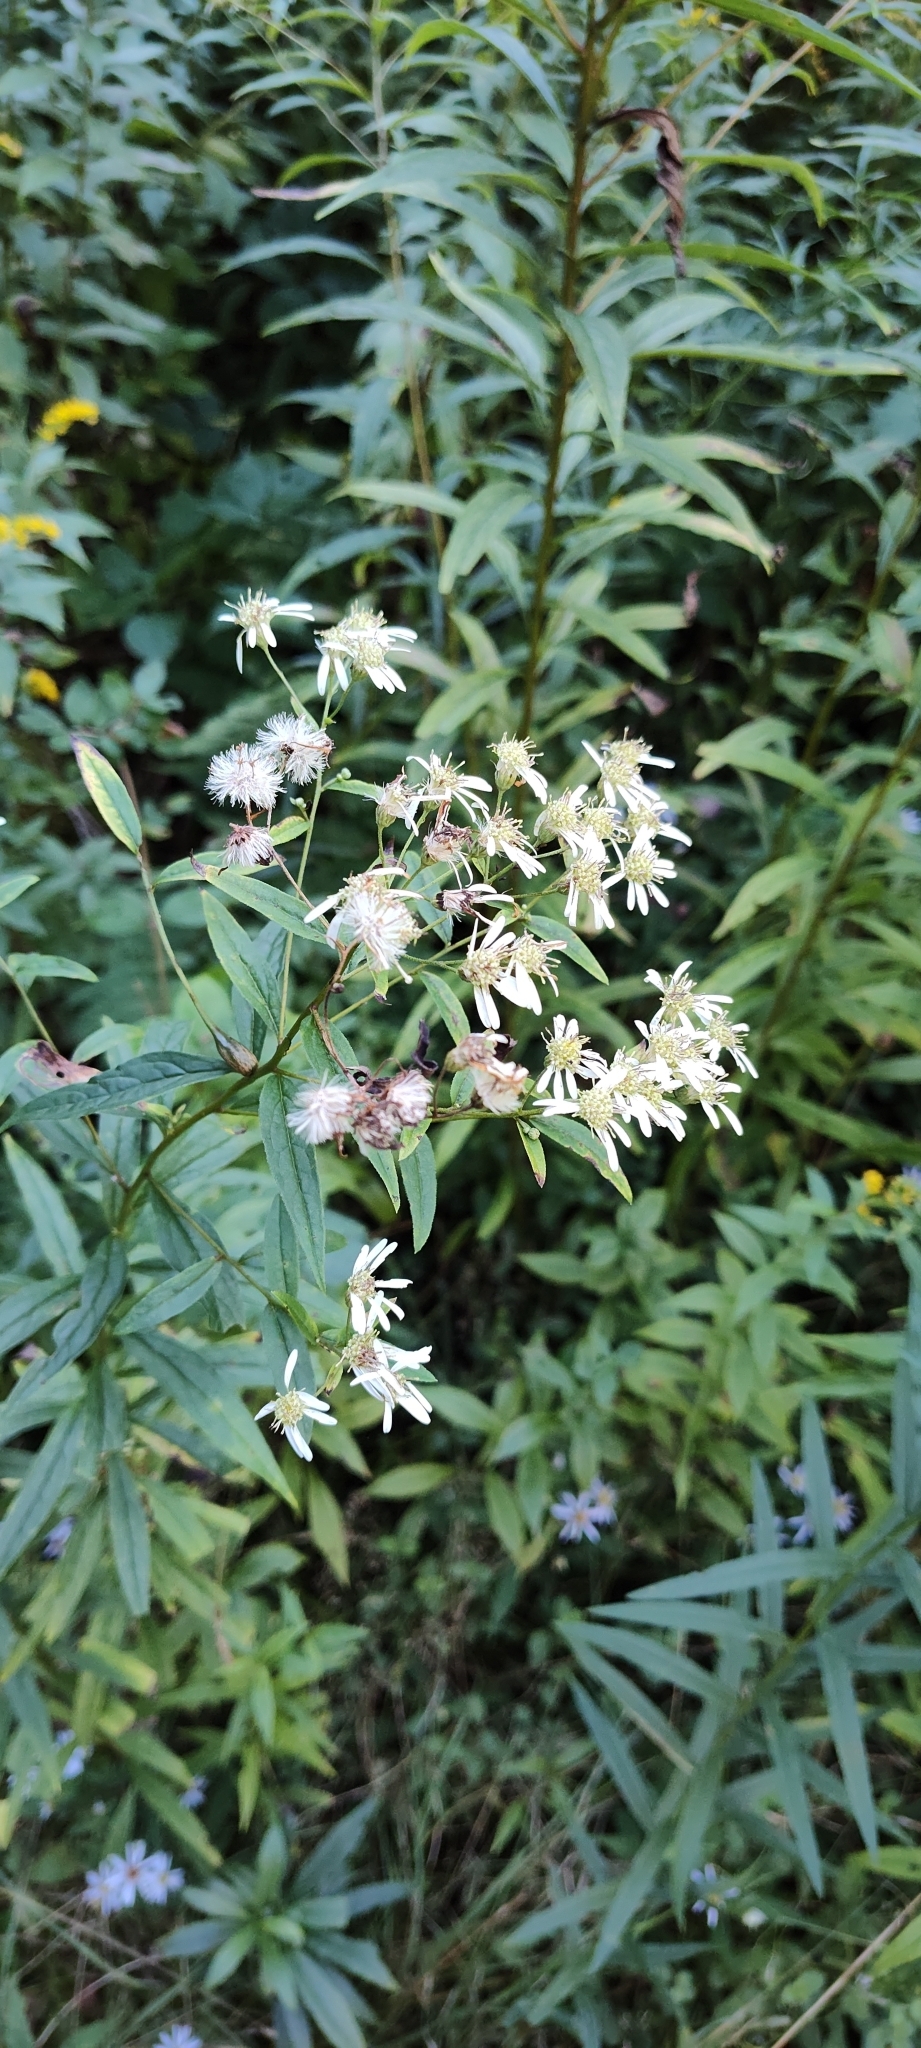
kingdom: Plantae
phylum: Tracheophyta
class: Magnoliopsida
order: Asterales
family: Asteraceae
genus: Doellingeria
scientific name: Doellingeria umbellata
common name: Flat-top white aster
